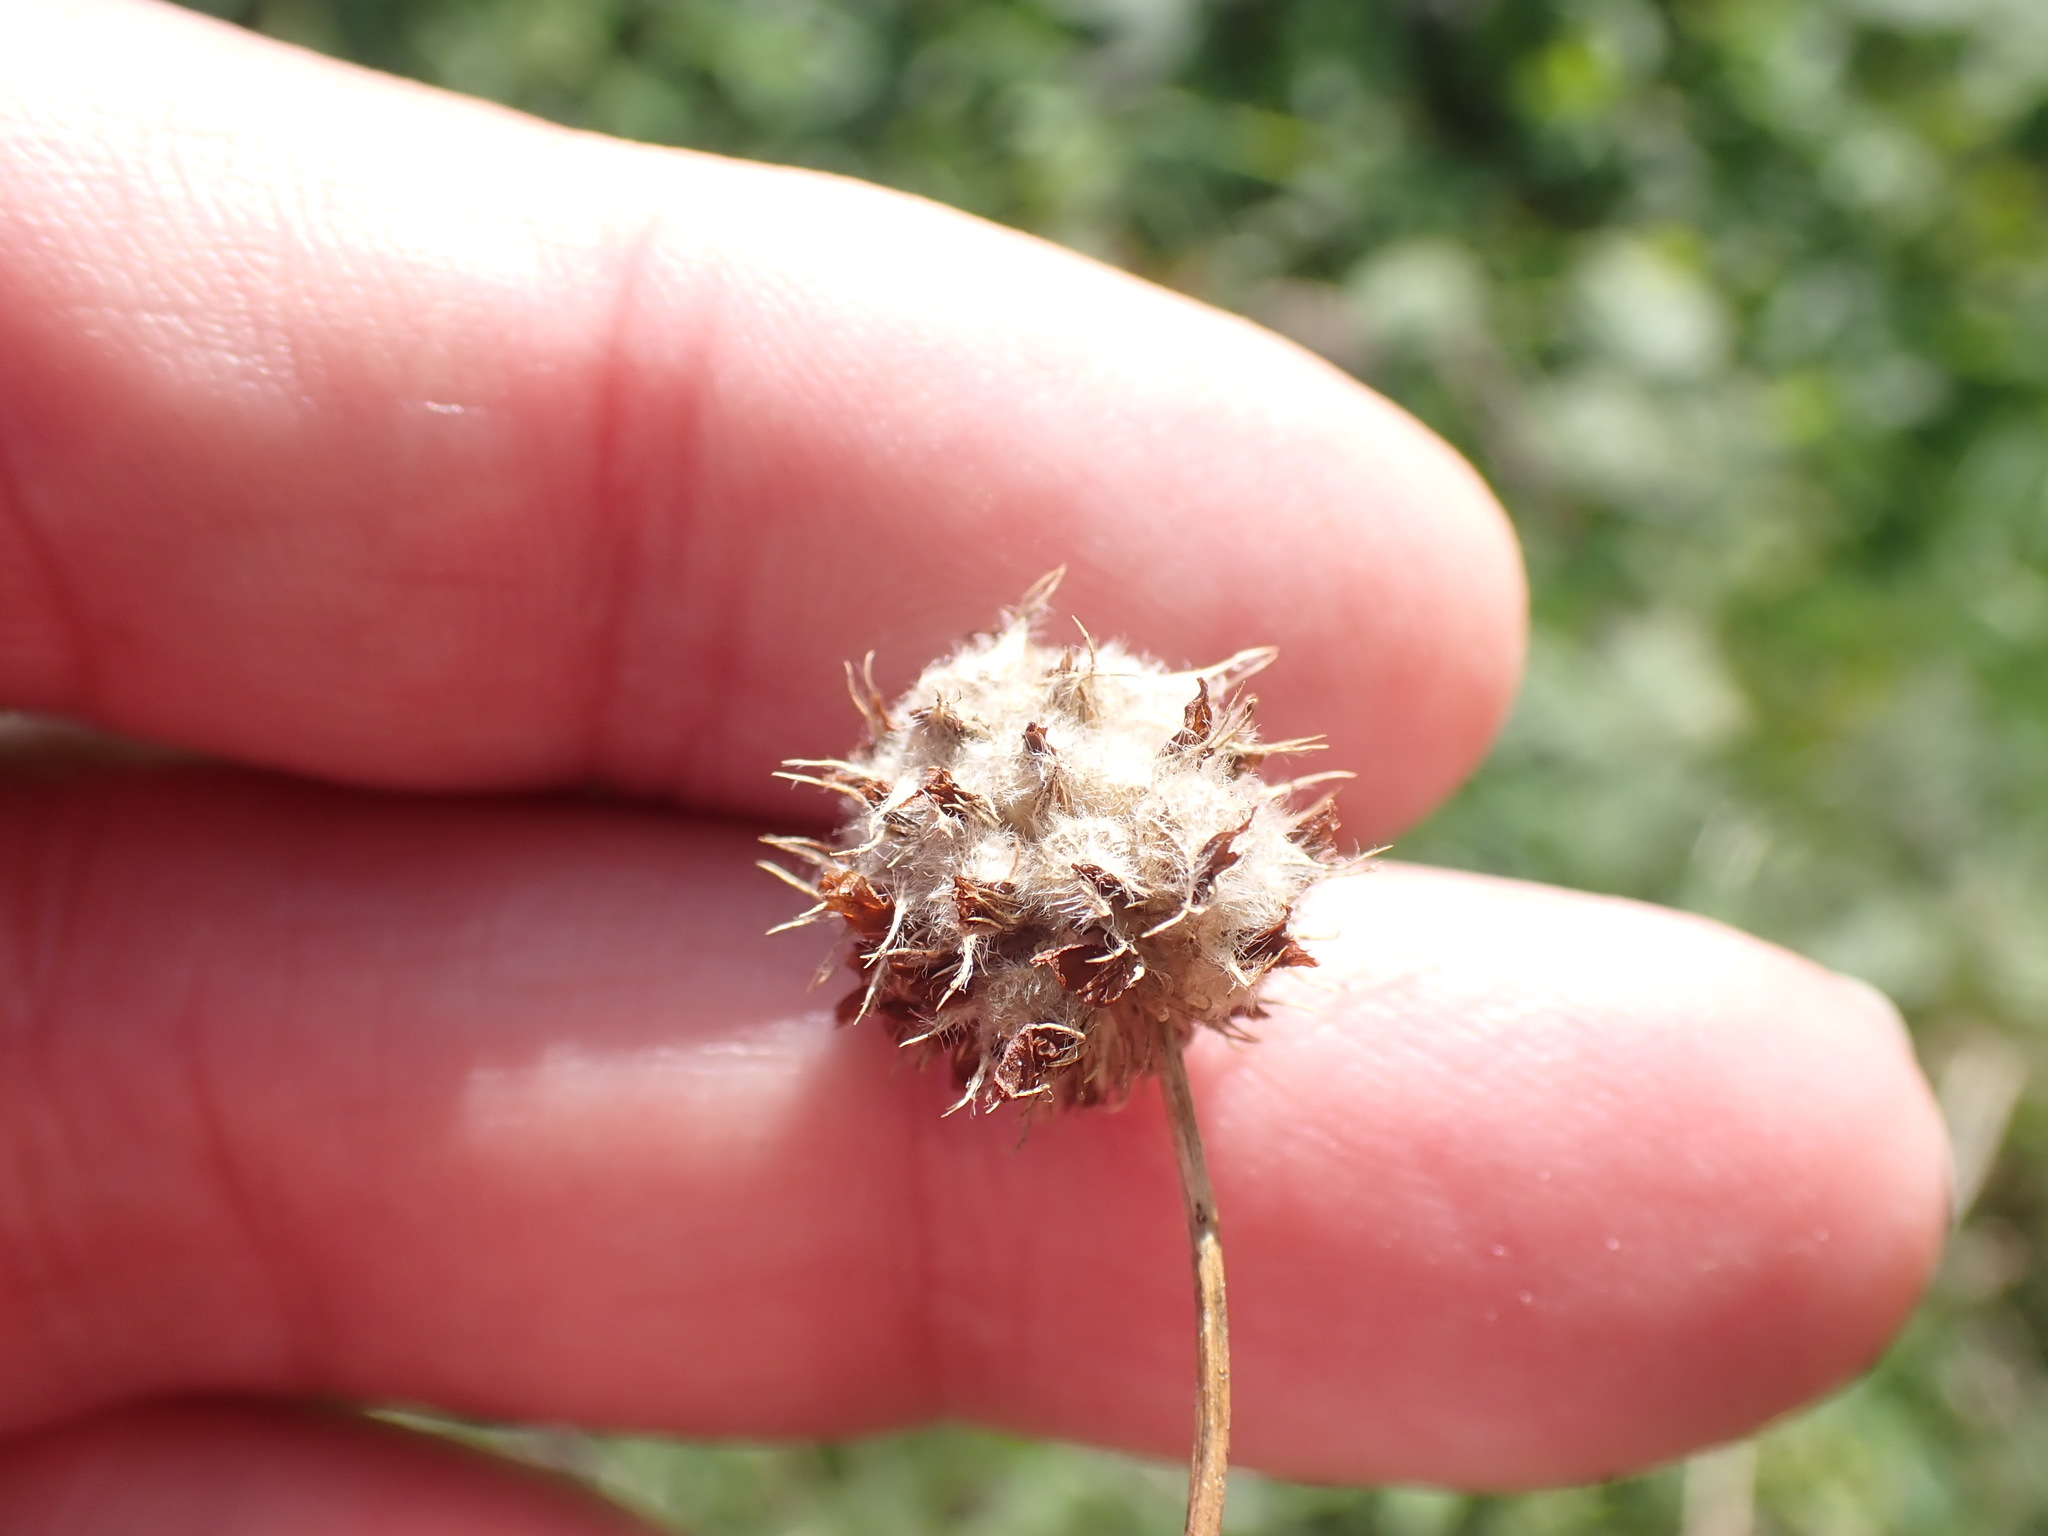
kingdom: Plantae
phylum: Tracheophyta
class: Magnoliopsida
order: Fabales
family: Fabaceae
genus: Trifolium
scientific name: Trifolium fragiferum
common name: Strawberry clover
